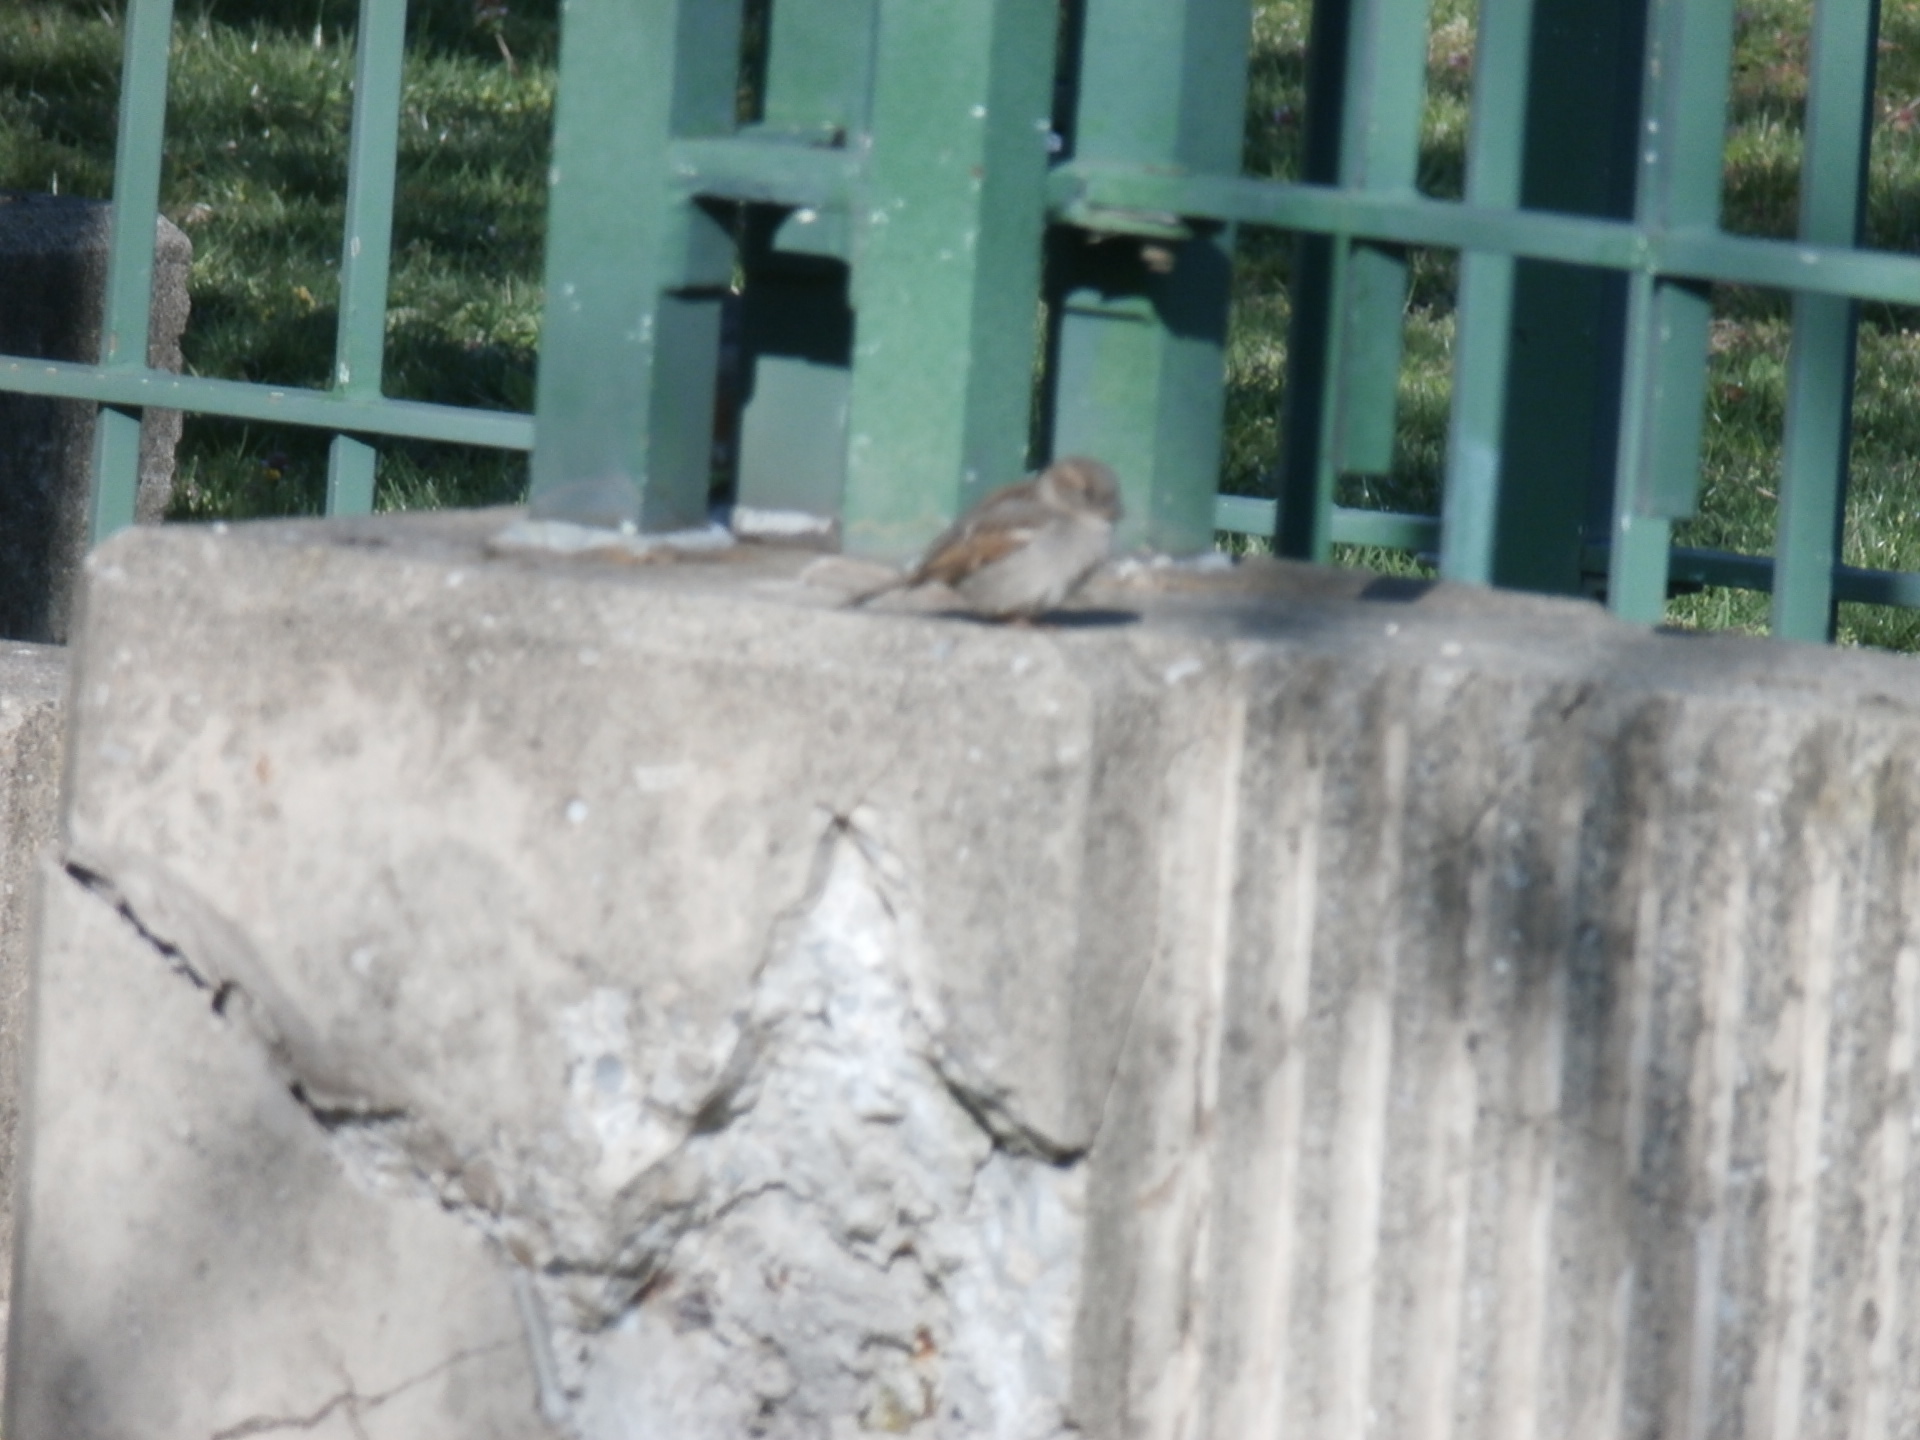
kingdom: Animalia
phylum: Chordata
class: Aves
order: Passeriformes
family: Passeridae
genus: Passer
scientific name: Passer domesticus
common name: House sparrow
